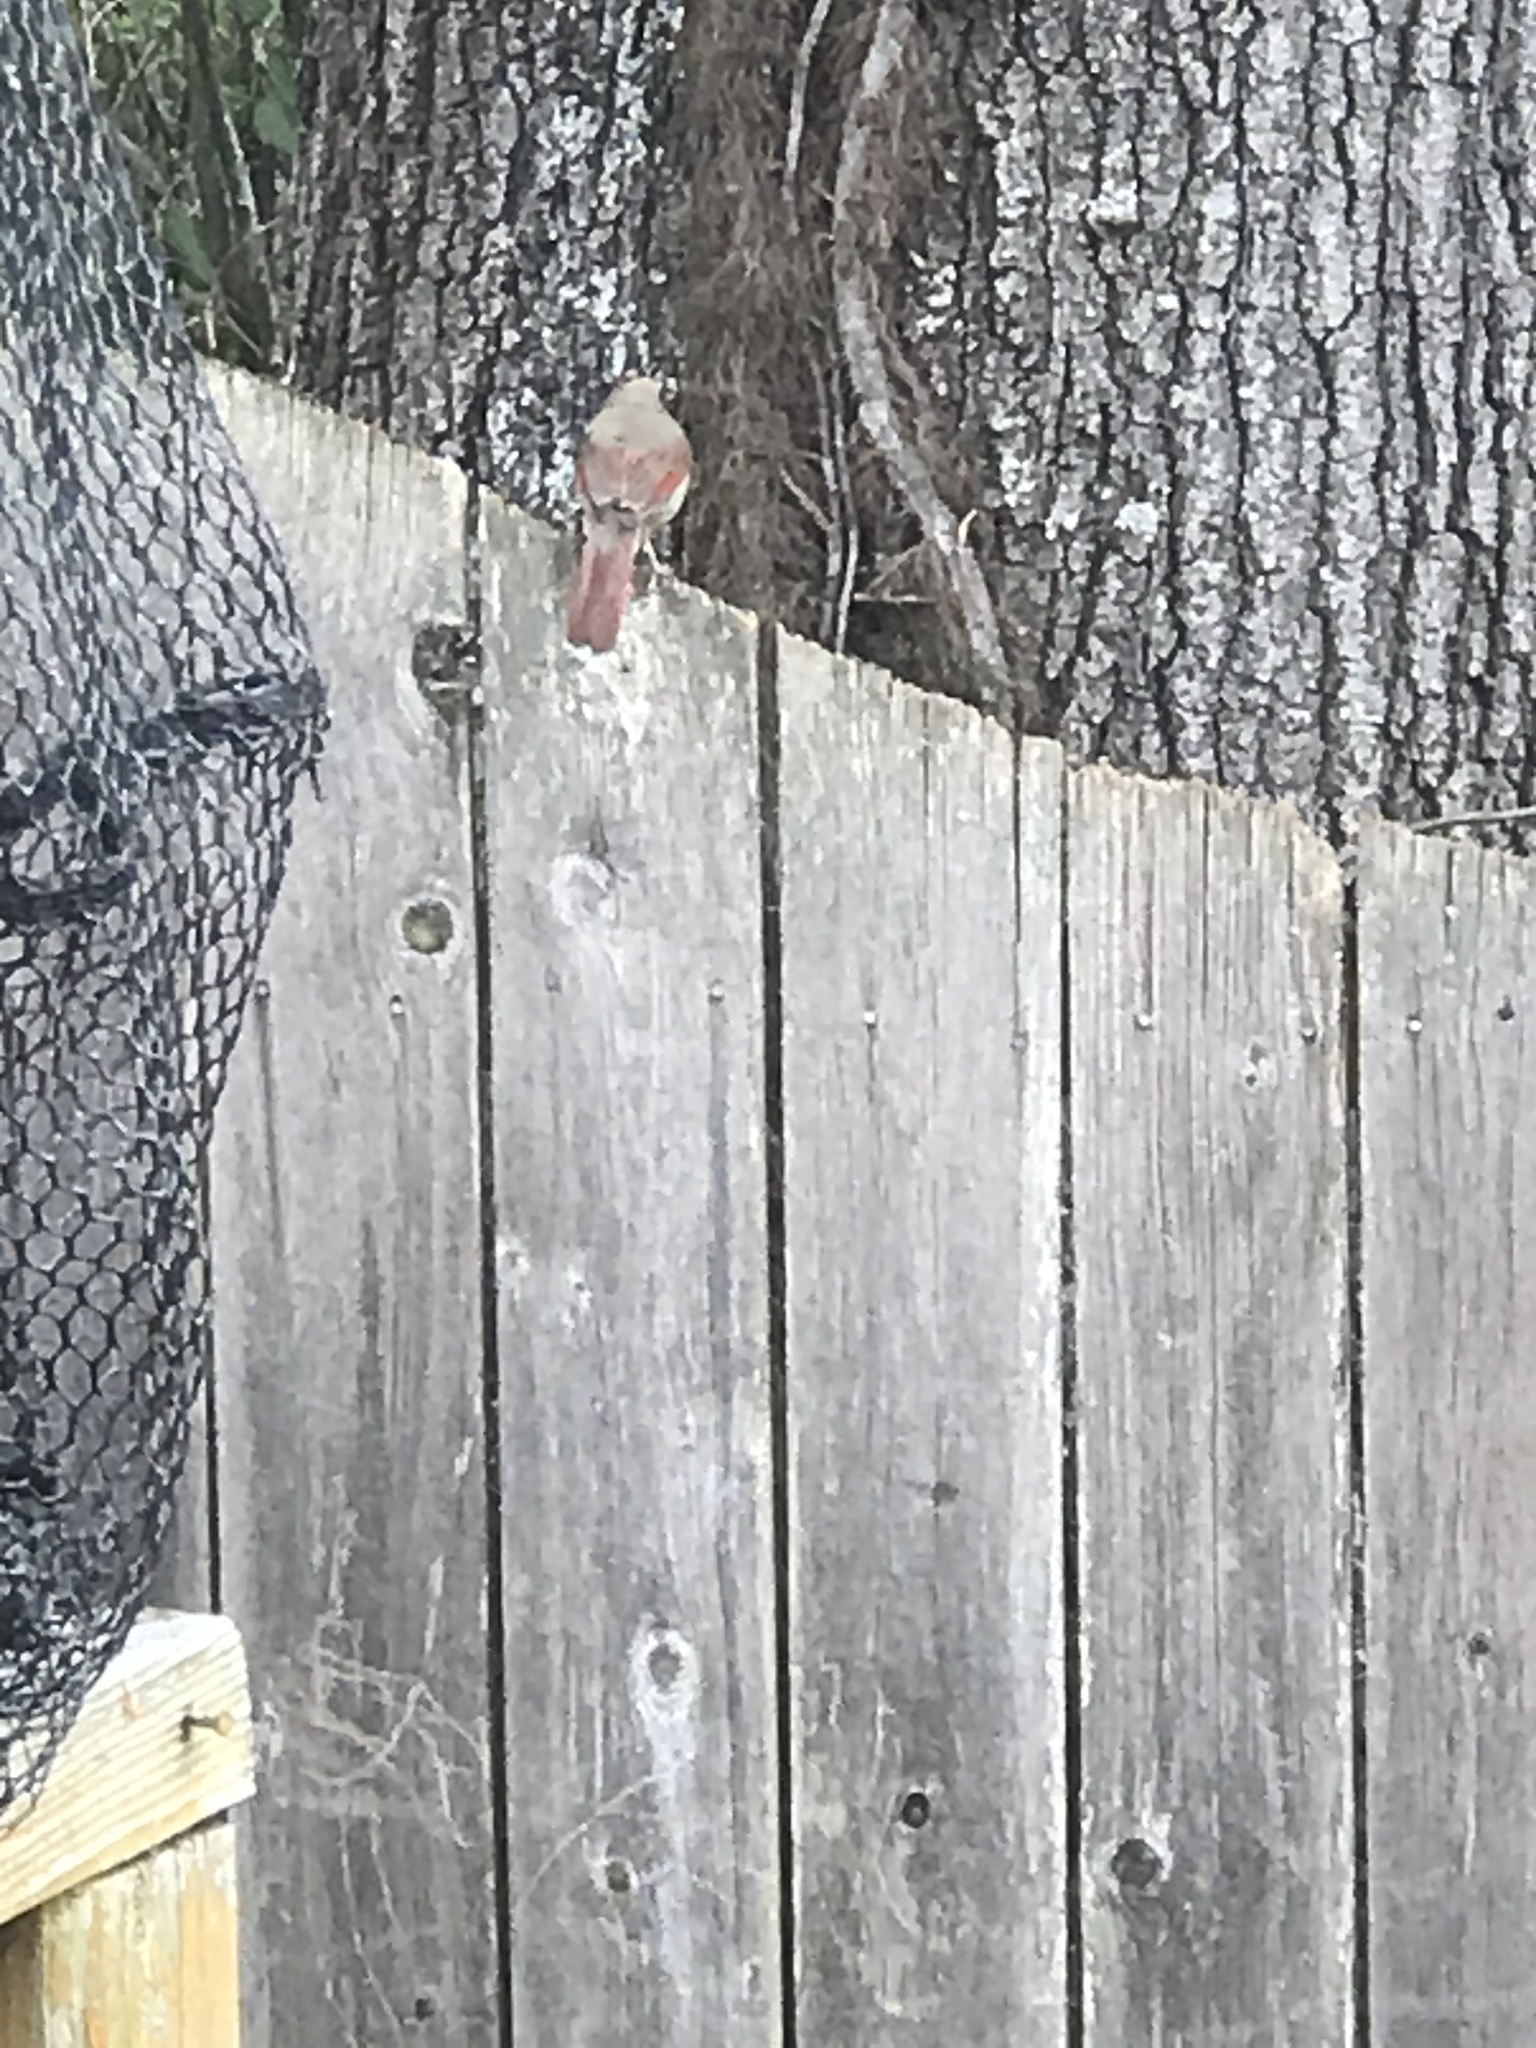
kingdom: Animalia
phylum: Chordata
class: Aves
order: Passeriformes
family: Cardinalidae
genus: Cardinalis
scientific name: Cardinalis cardinalis
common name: Northern cardinal
